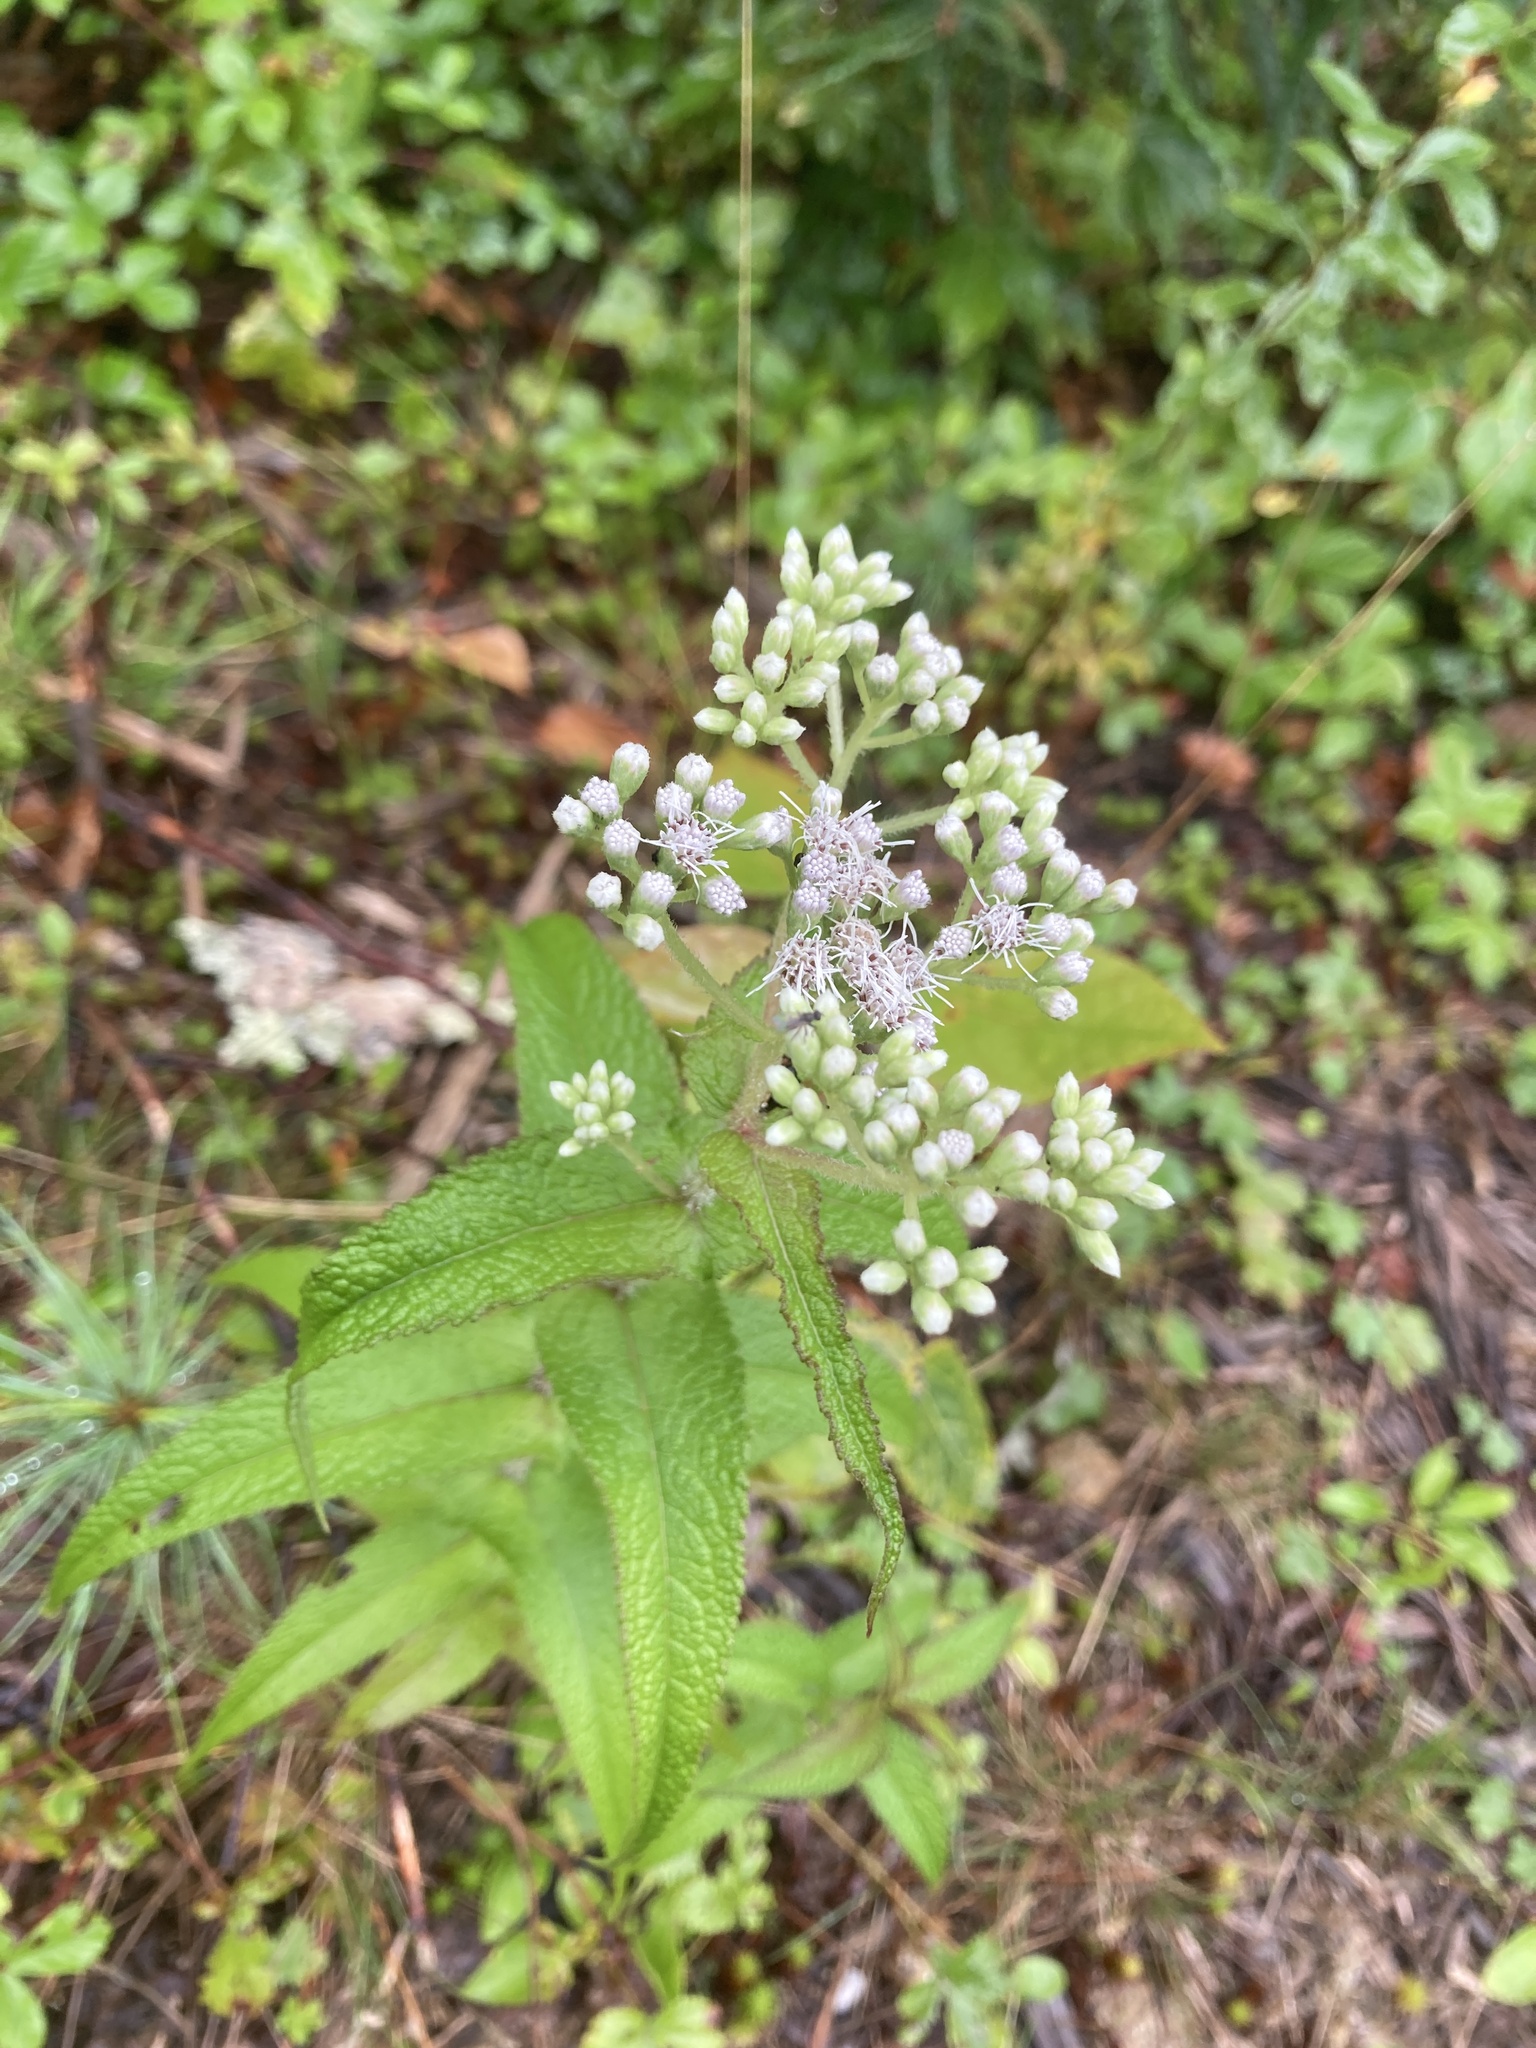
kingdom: Plantae
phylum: Tracheophyta
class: Magnoliopsida
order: Asterales
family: Asteraceae
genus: Eupatorium
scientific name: Eupatorium perfoliatum
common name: Boneset
